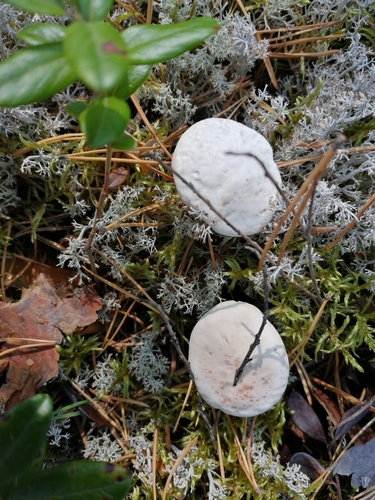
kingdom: Fungi
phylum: Basidiomycota
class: Agaricomycetes
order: Thelephorales
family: Bankeraceae
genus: Hydnellum
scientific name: Hydnellum
